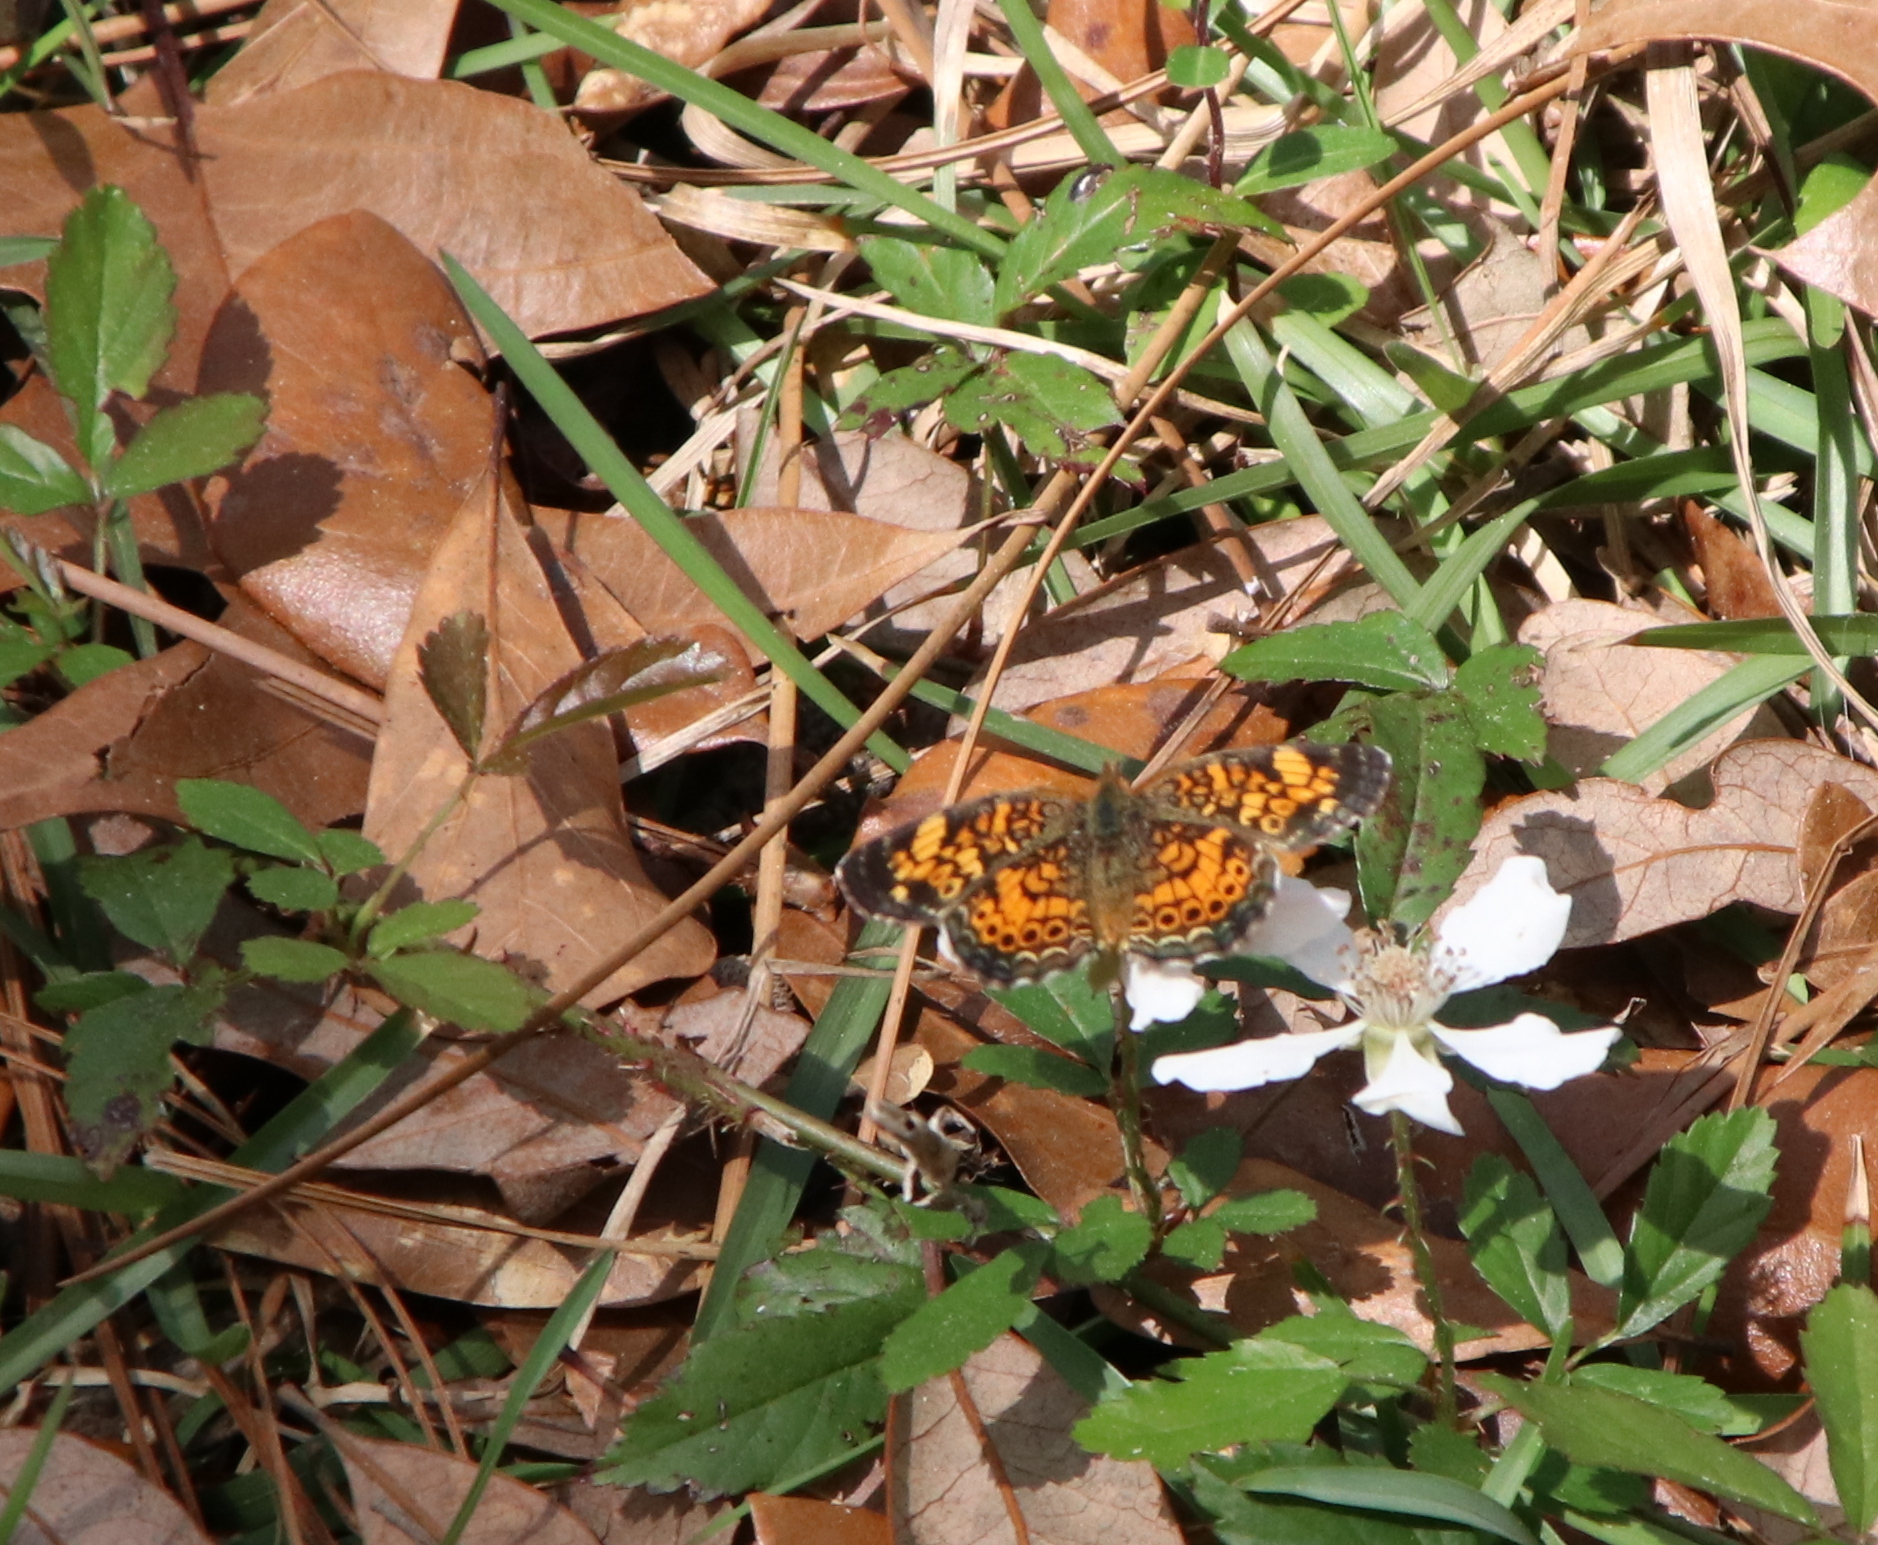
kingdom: Animalia
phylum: Arthropoda
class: Insecta
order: Lepidoptera
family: Nymphalidae
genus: Phyciodes
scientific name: Phyciodes tharos
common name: Pearl crescent
